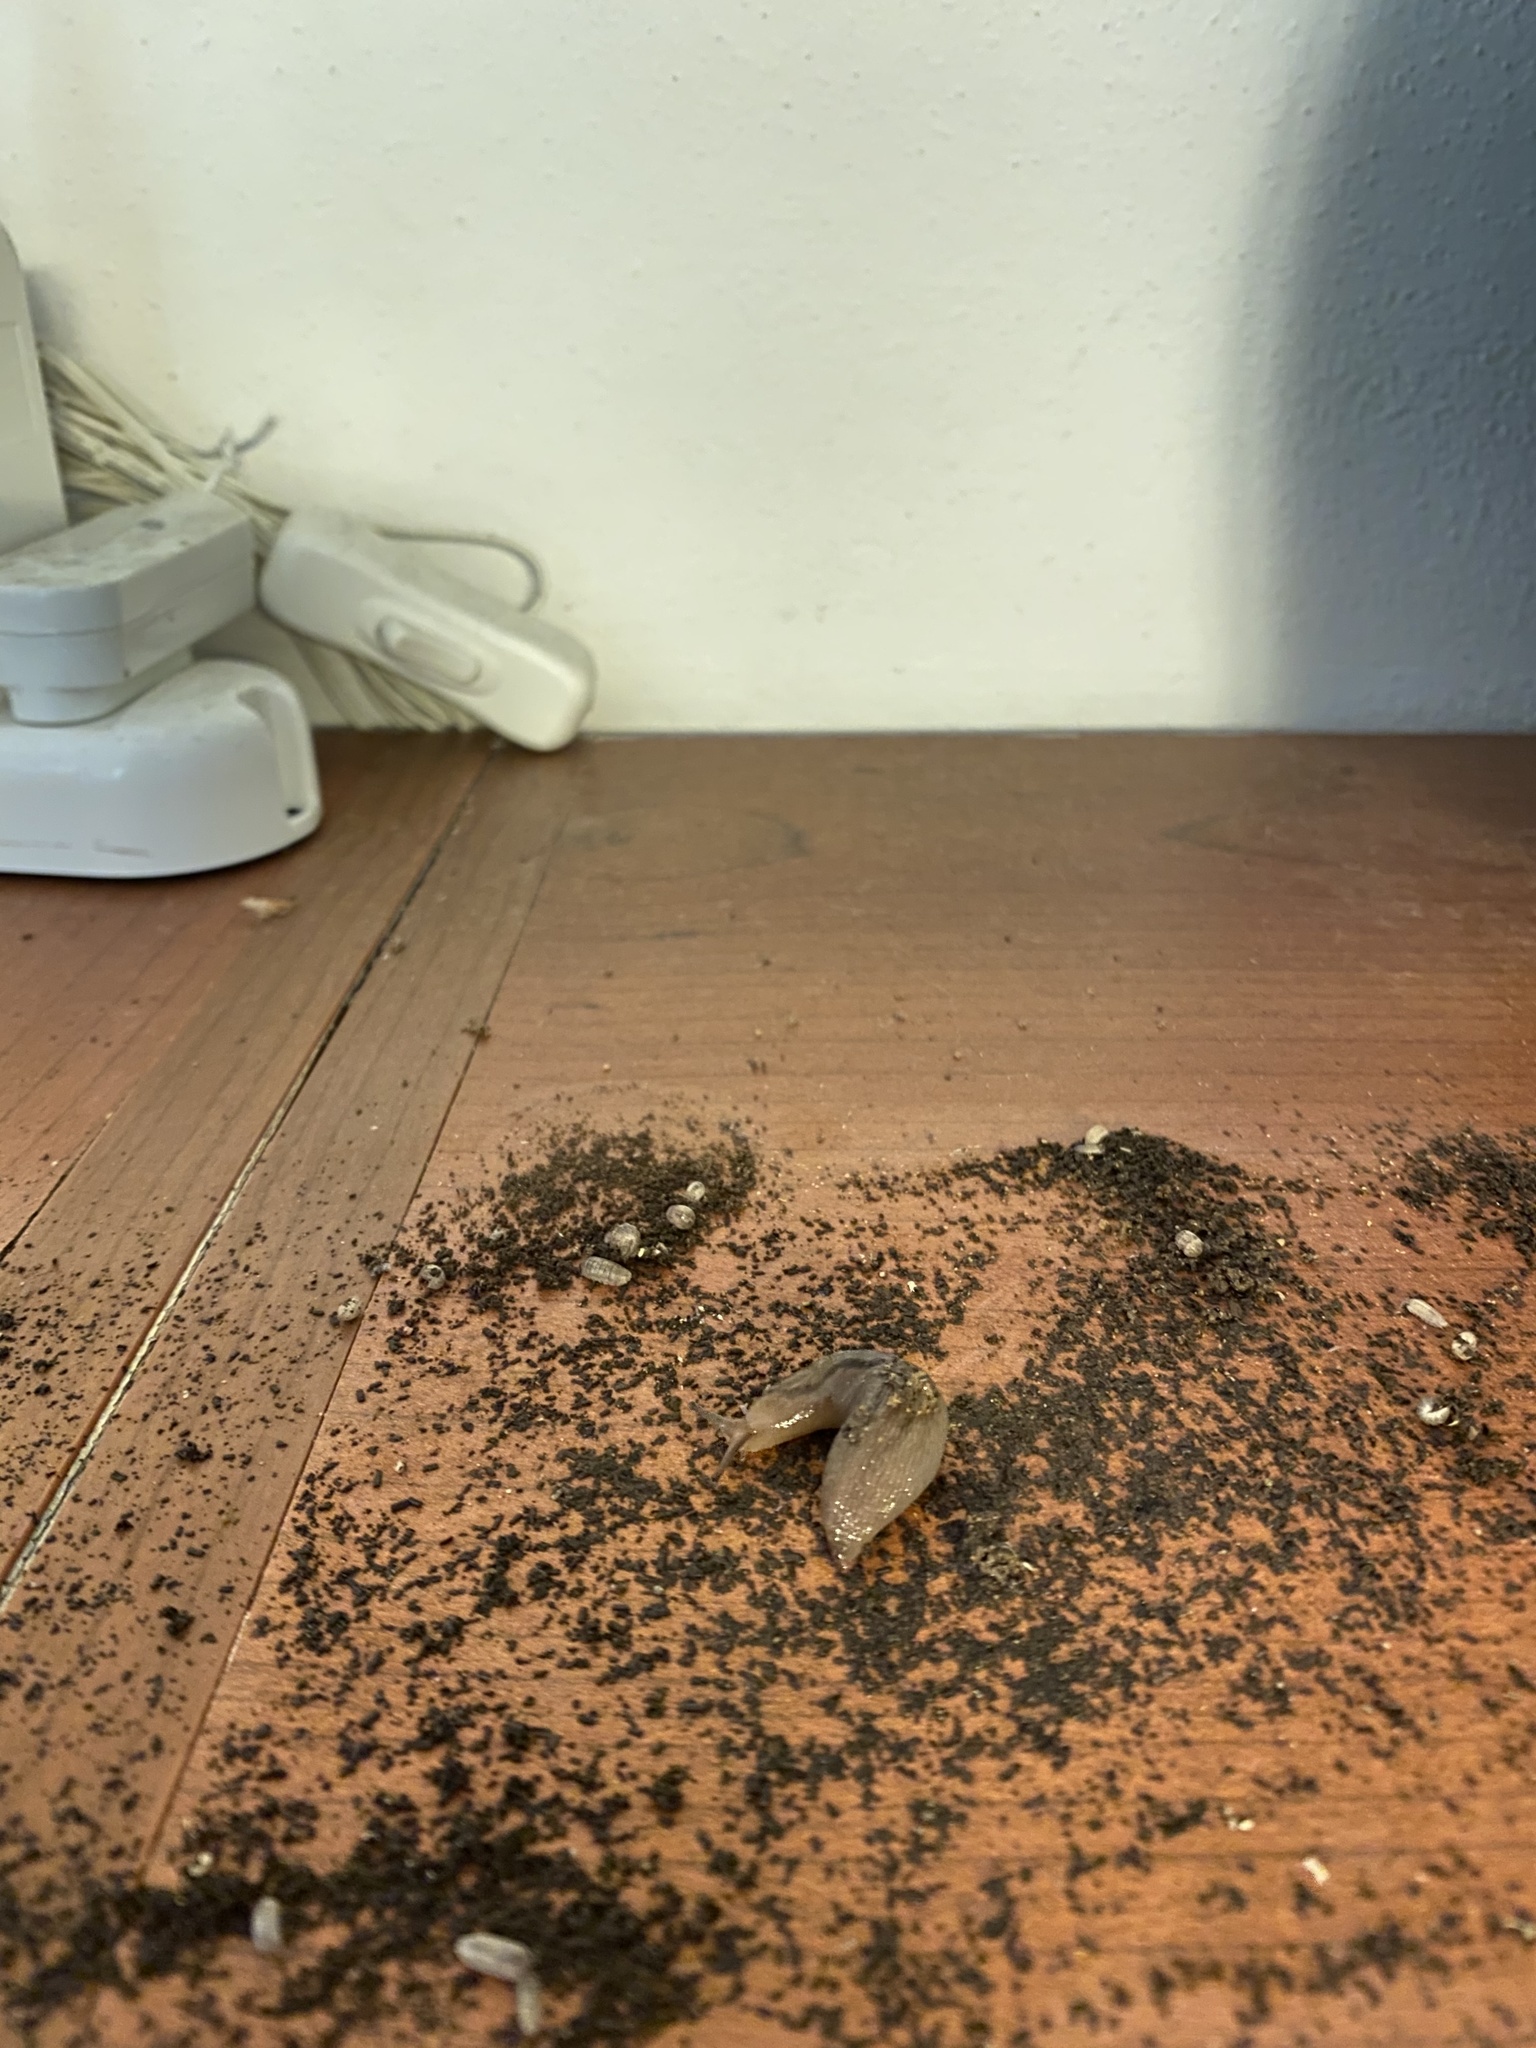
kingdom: Animalia
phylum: Mollusca
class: Gastropoda
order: Stylommatophora
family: Limacidae
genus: Ambigolimax
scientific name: Ambigolimax valentianus
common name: Greenhouse slug
